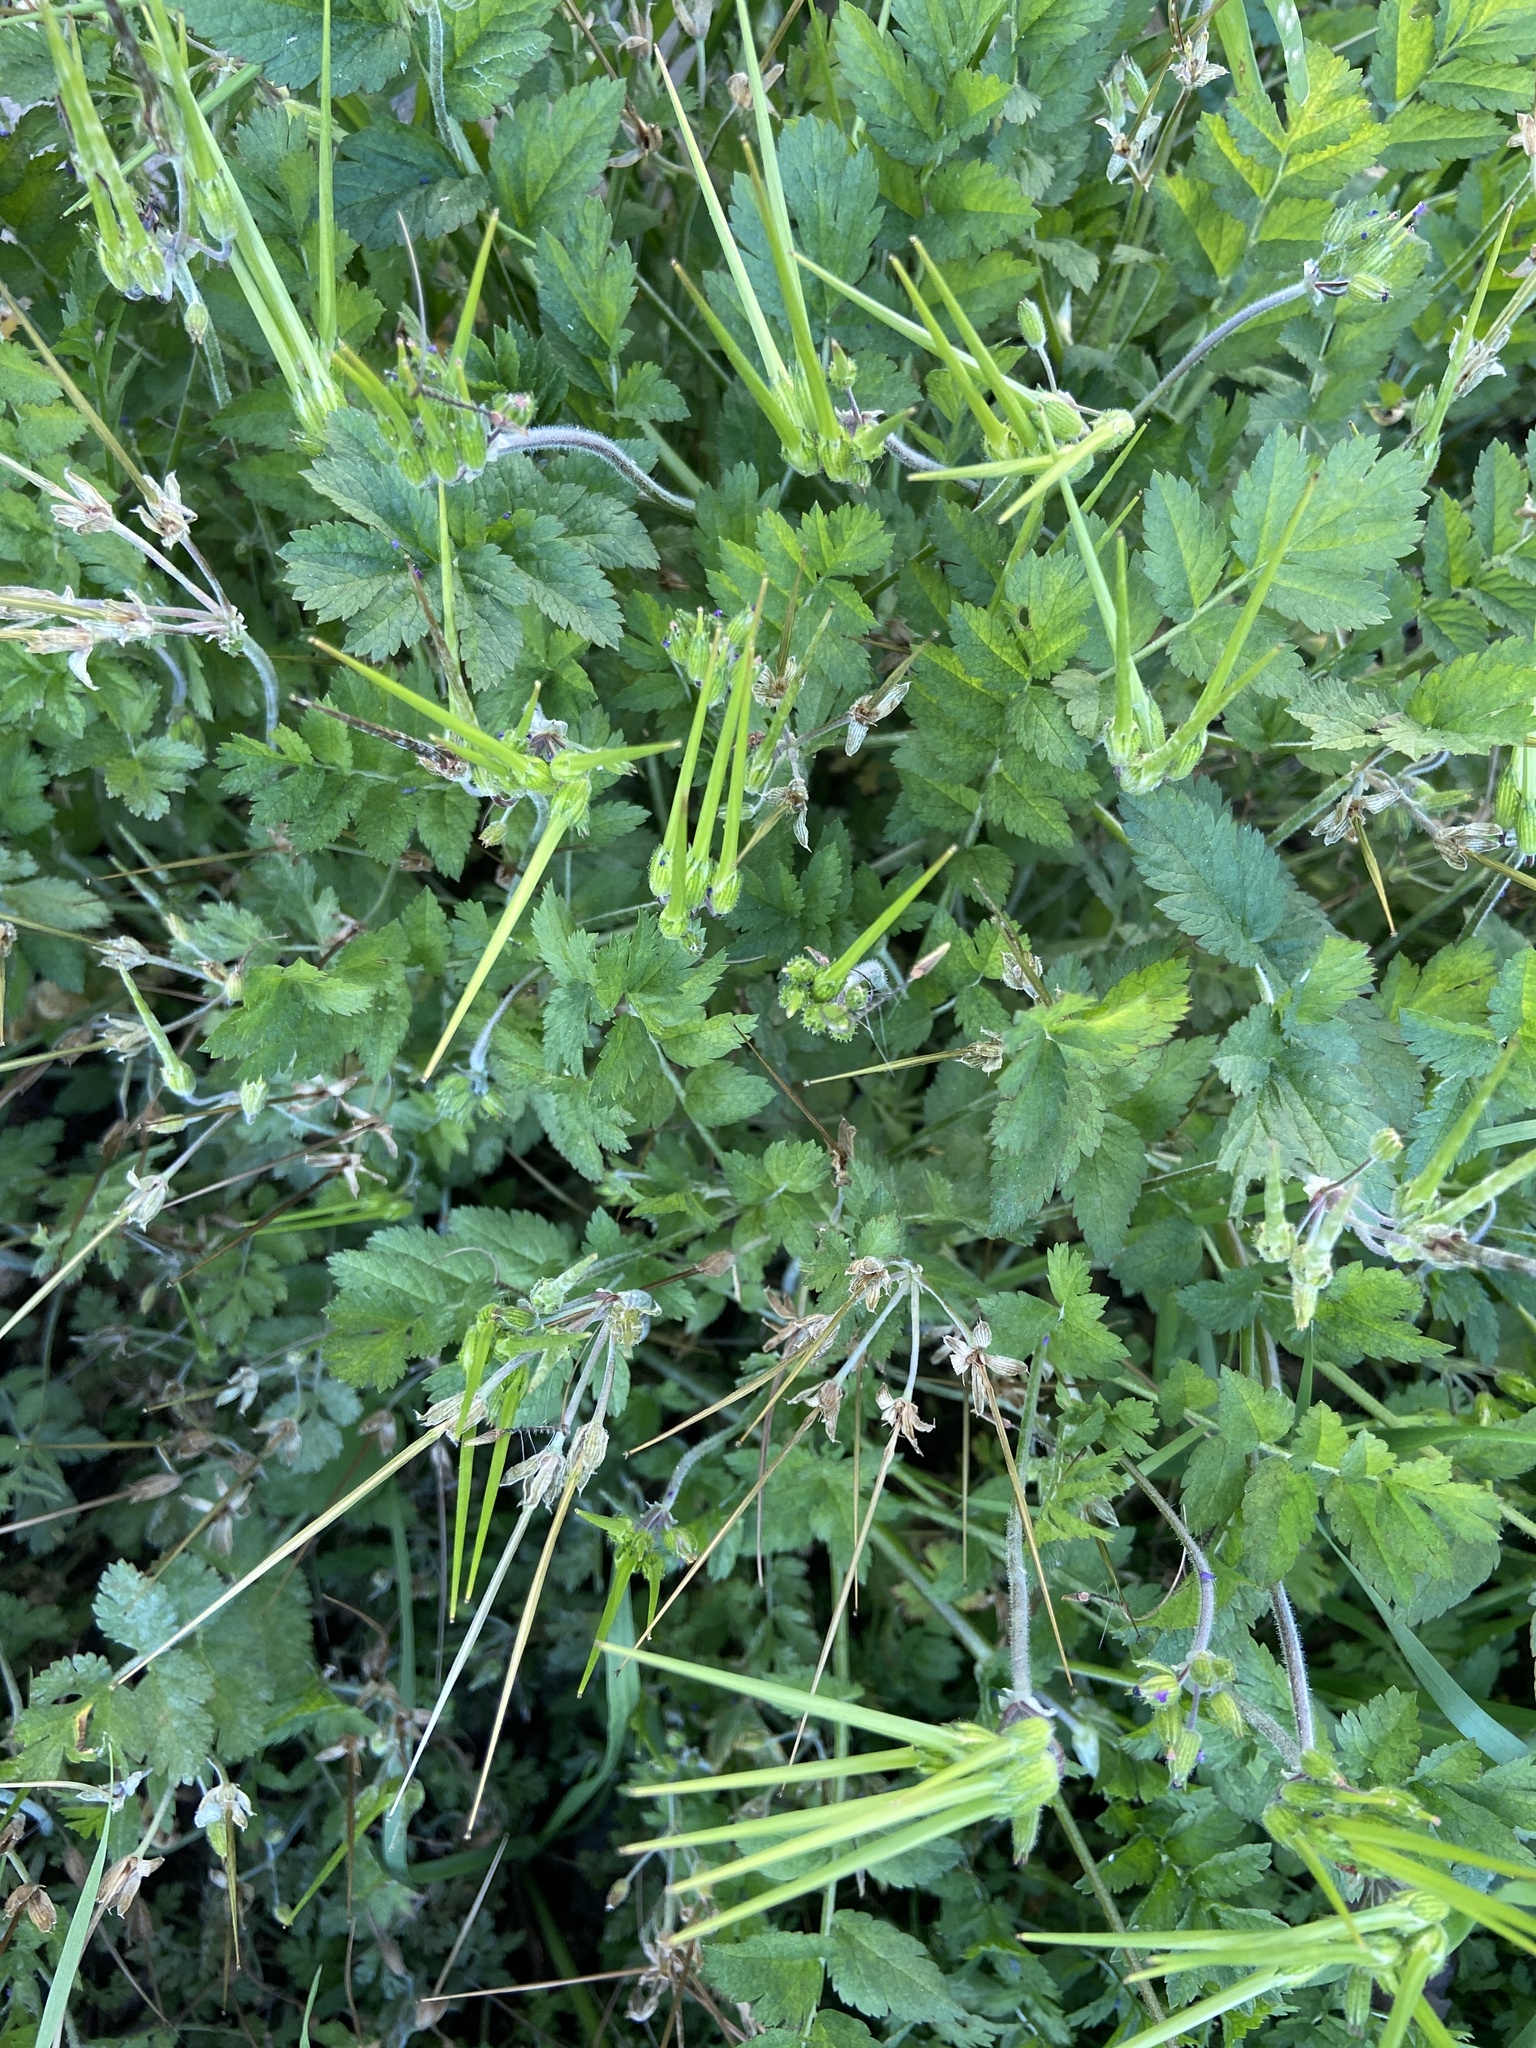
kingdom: Plantae
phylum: Tracheophyta
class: Magnoliopsida
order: Geraniales
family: Geraniaceae
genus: Erodium
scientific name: Erodium moschatum
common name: Musk stork's-bill
